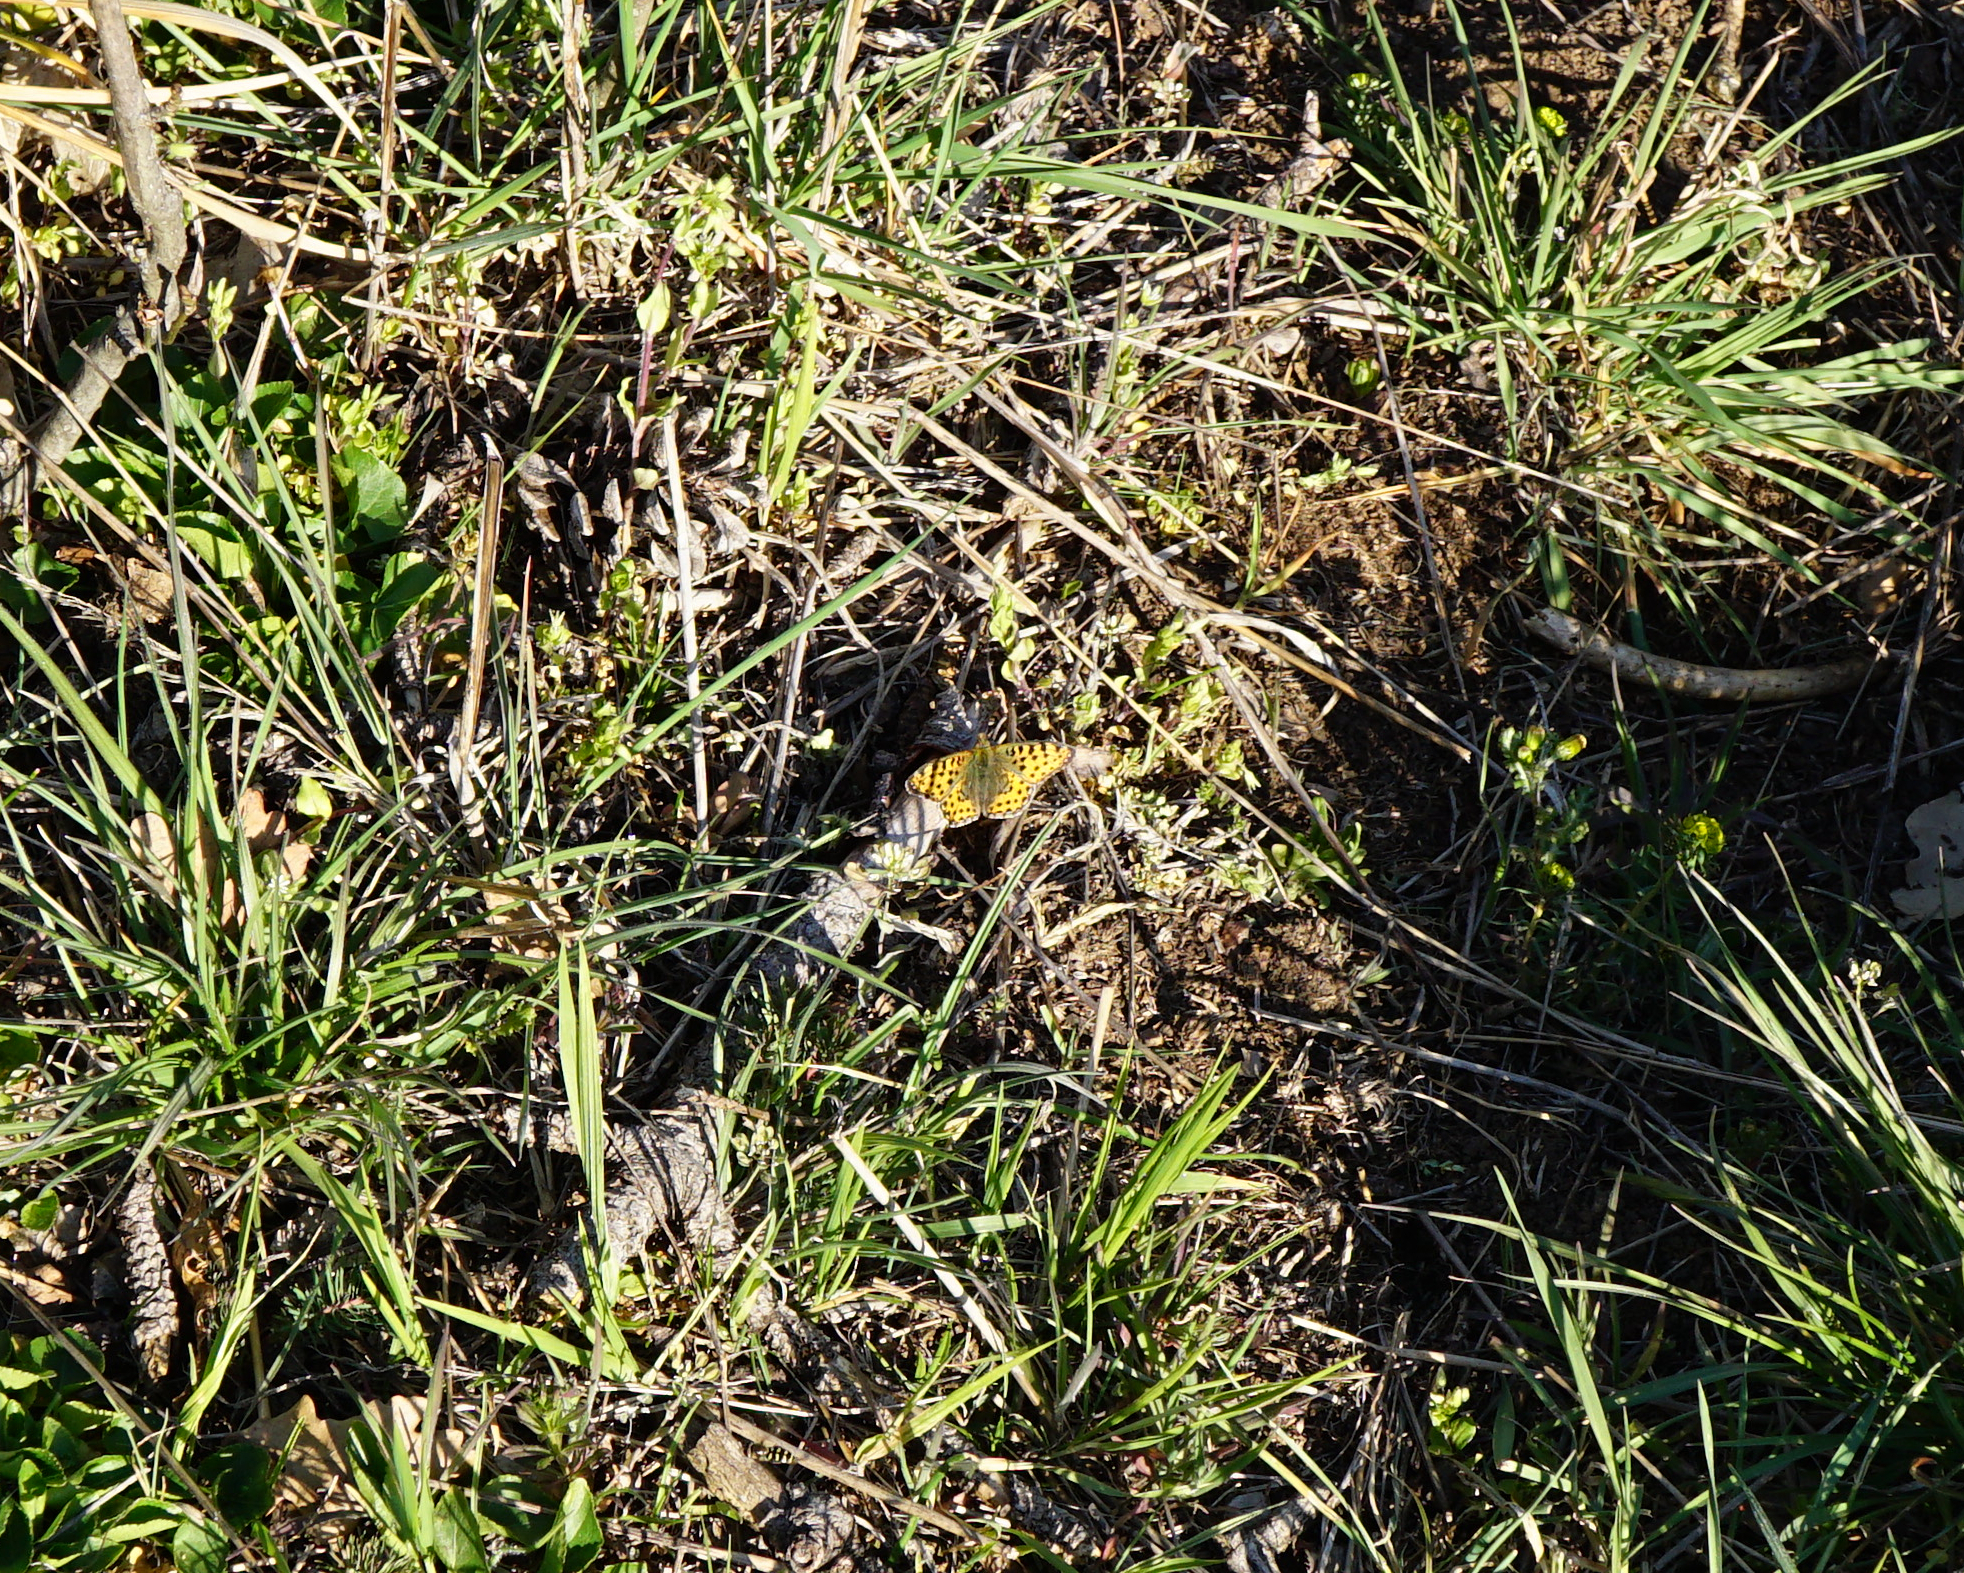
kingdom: Animalia
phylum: Arthropoda
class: Insecta
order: Lepidoptera
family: Nymphalidae
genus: Issoria
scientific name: Issoria lathonia
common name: Queen of spain fritillary
